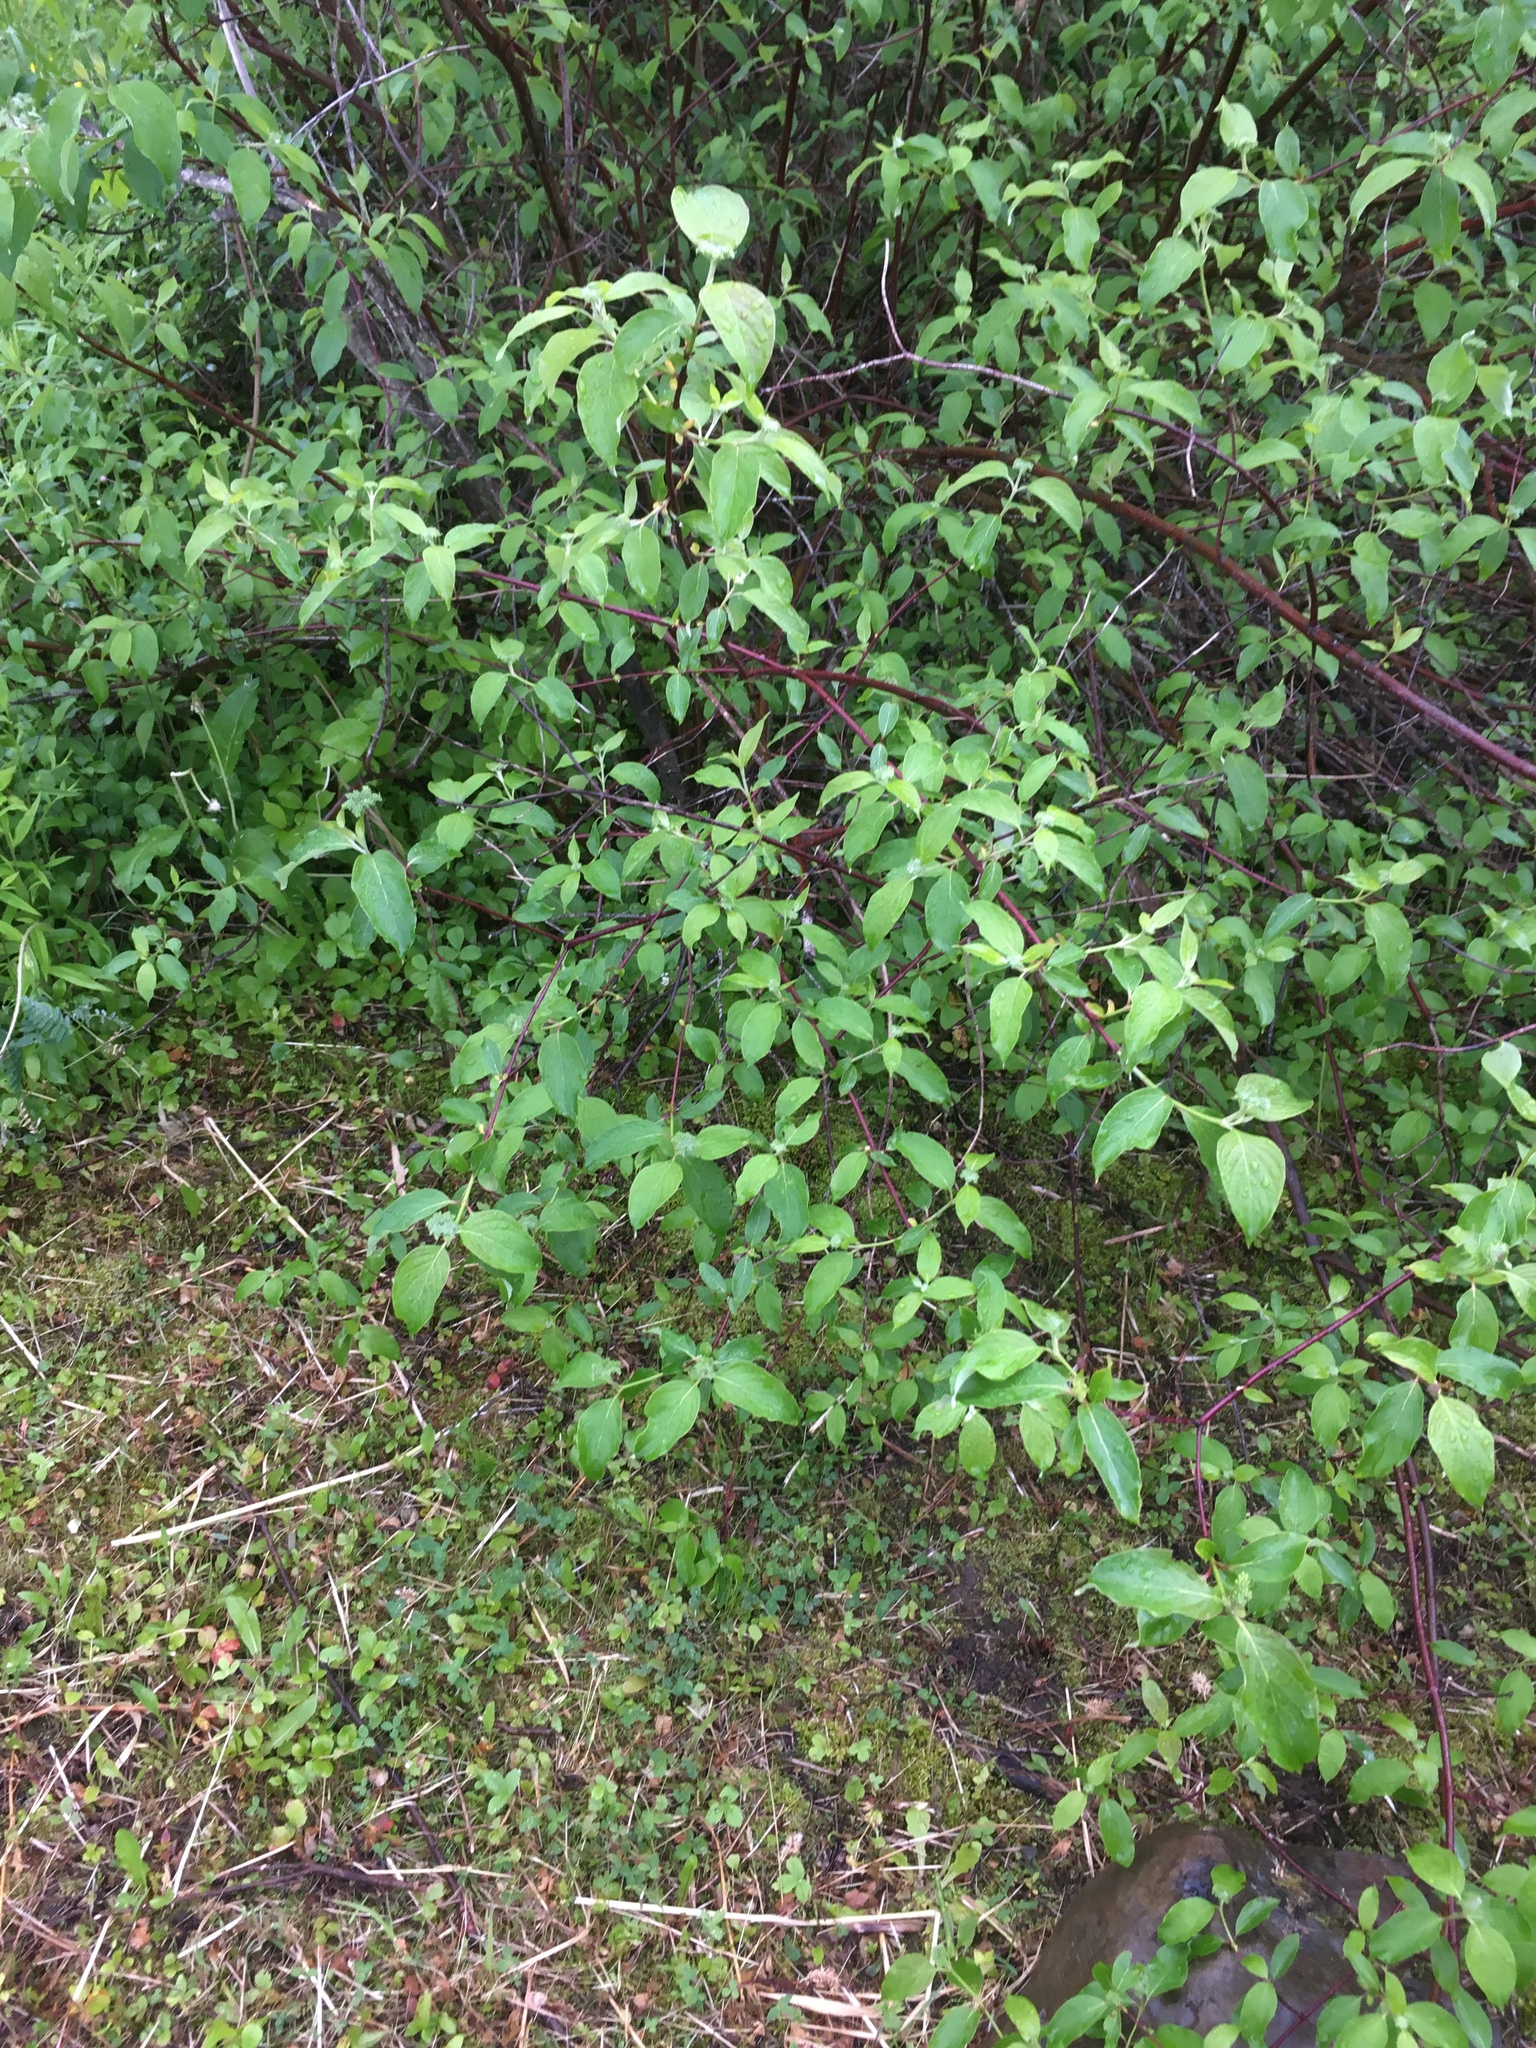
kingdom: Plantae
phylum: Tracheophyta
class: Magnoliopsida
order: Cornales
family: Cornaceae
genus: Cornus
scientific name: Cornus sericea
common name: Red-osier dogwood
